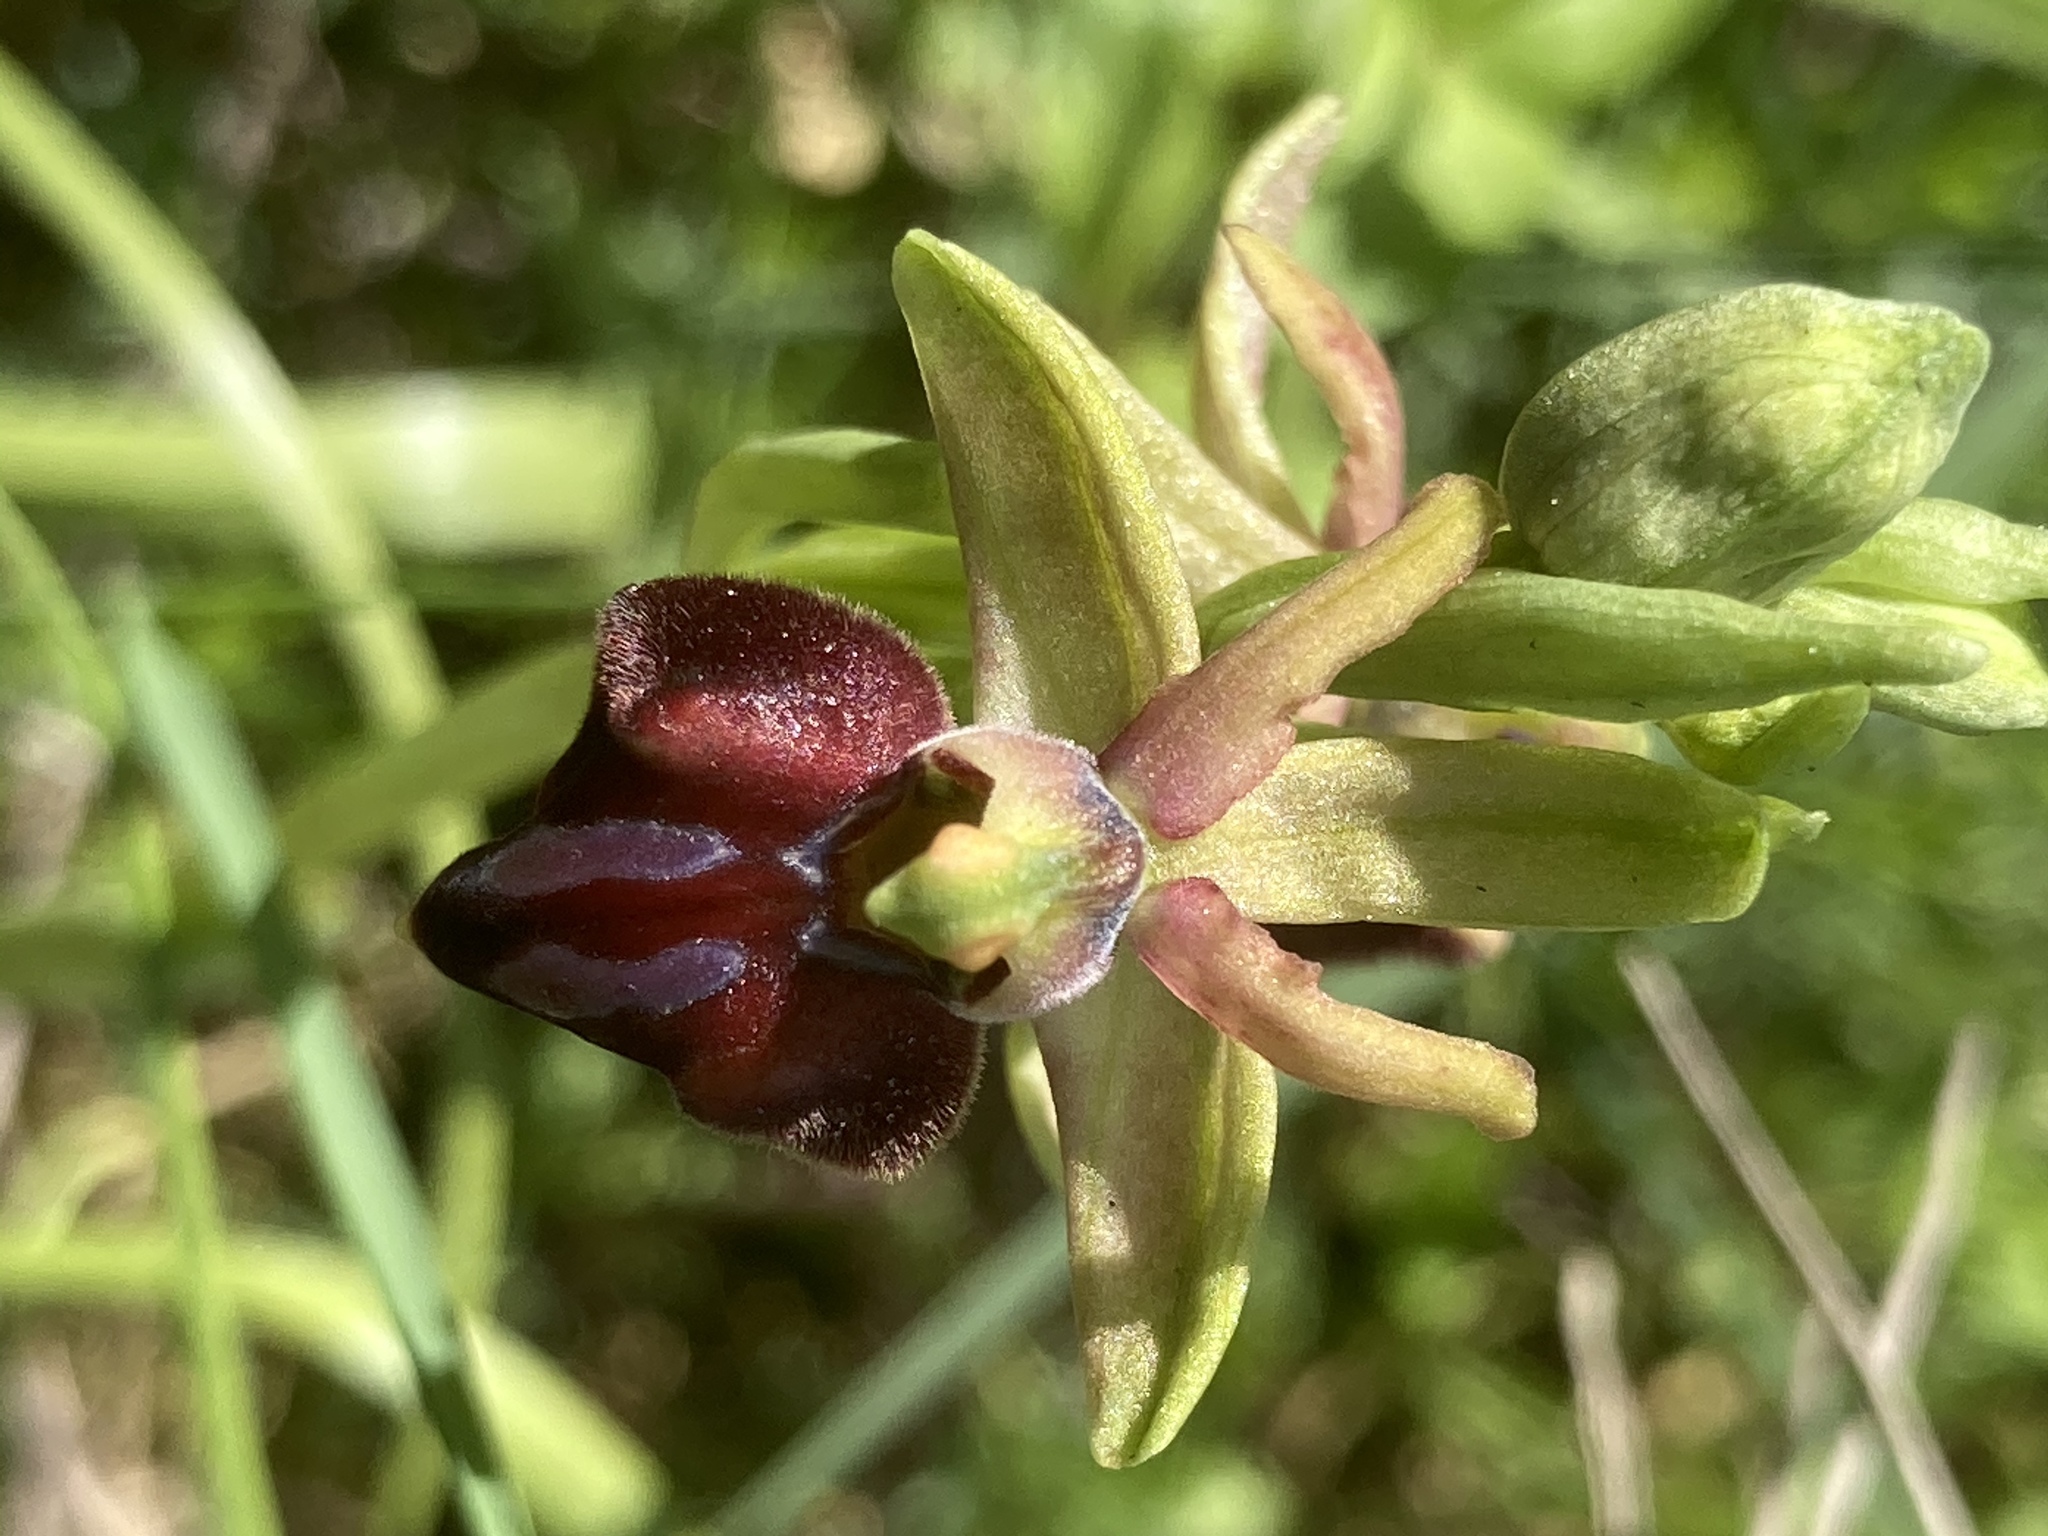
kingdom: Plantae
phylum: Tracheophyta
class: Liliopsida
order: Asparagales
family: Orchidaceae
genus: Ophrys
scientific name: Ophrys sphegodes
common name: Early spider-orchid
